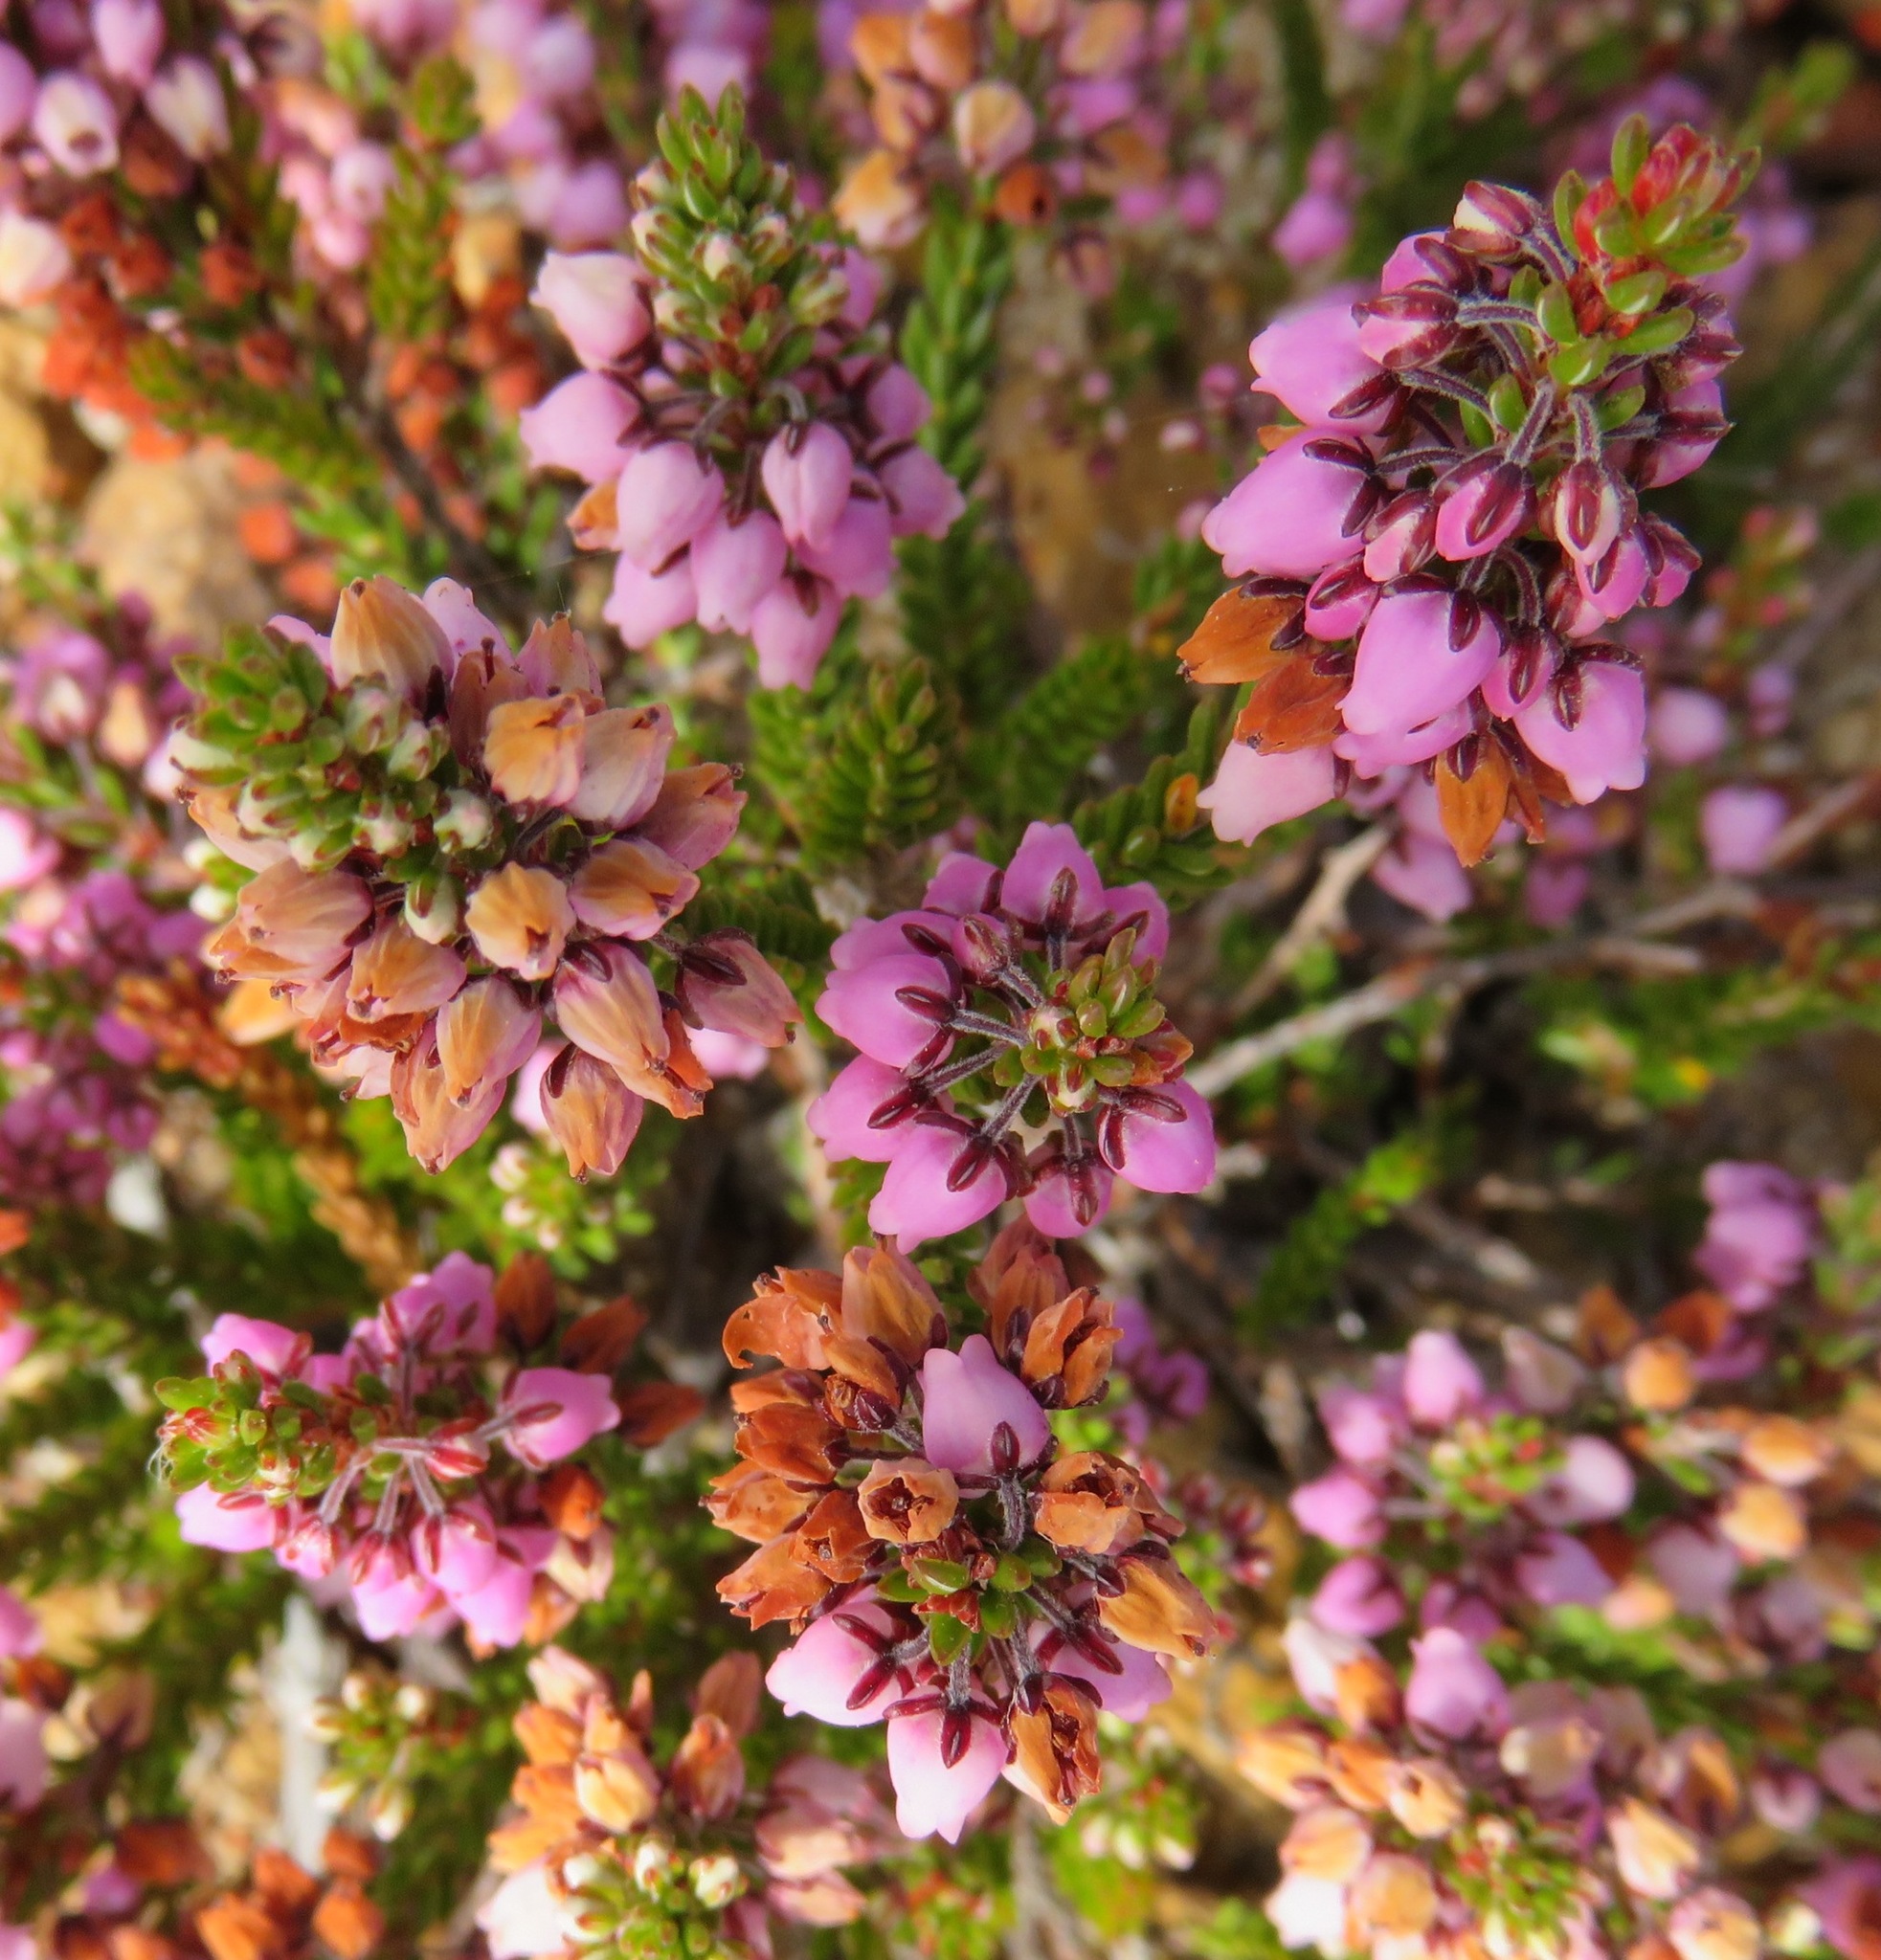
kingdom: Plantae
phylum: Tracheophyta
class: Magnoliopsida
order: Ericales
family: Ericaceae
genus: Erica
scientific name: Erica pulchella
